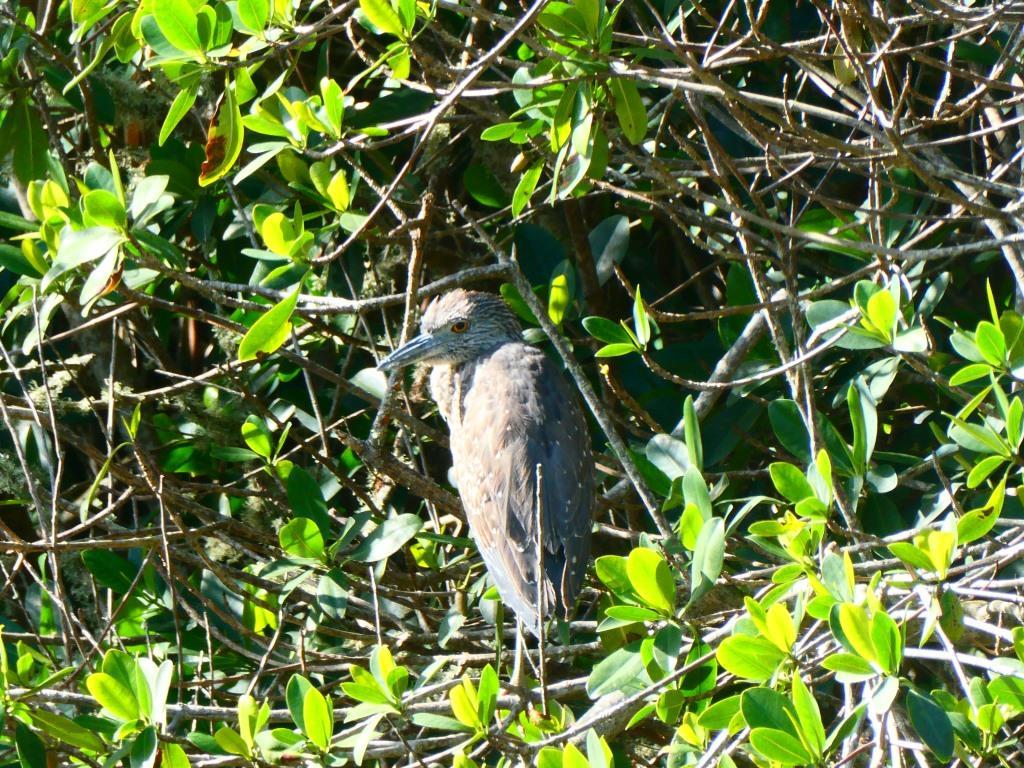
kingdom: Animalia
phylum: Chordata
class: Aves
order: Pelecaniformes
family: Ardeidae
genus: Nyctanassa
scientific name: Nyctanassa violacea
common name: Yellow-crowned night heron
